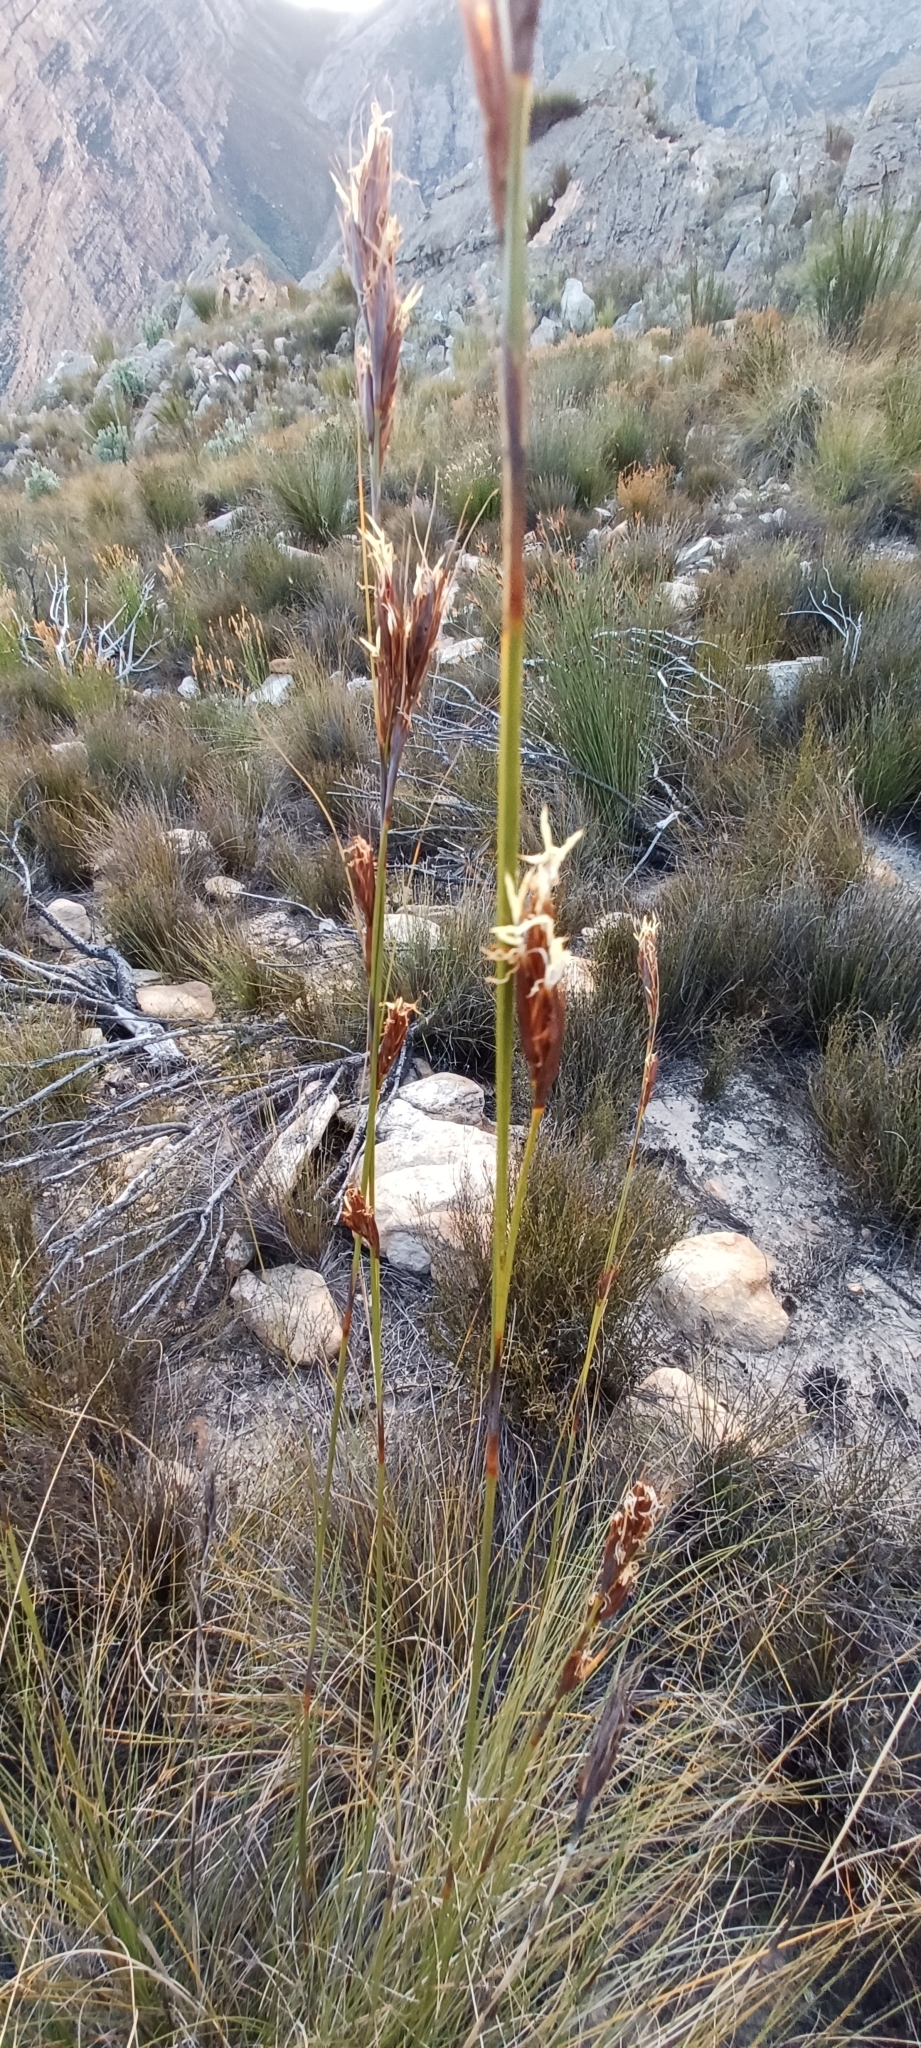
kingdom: Plantae
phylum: Tracheophyta
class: Liliopsida
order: Poales
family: Cyperaceae
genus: Tetraria
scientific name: Tetraria ustulata
